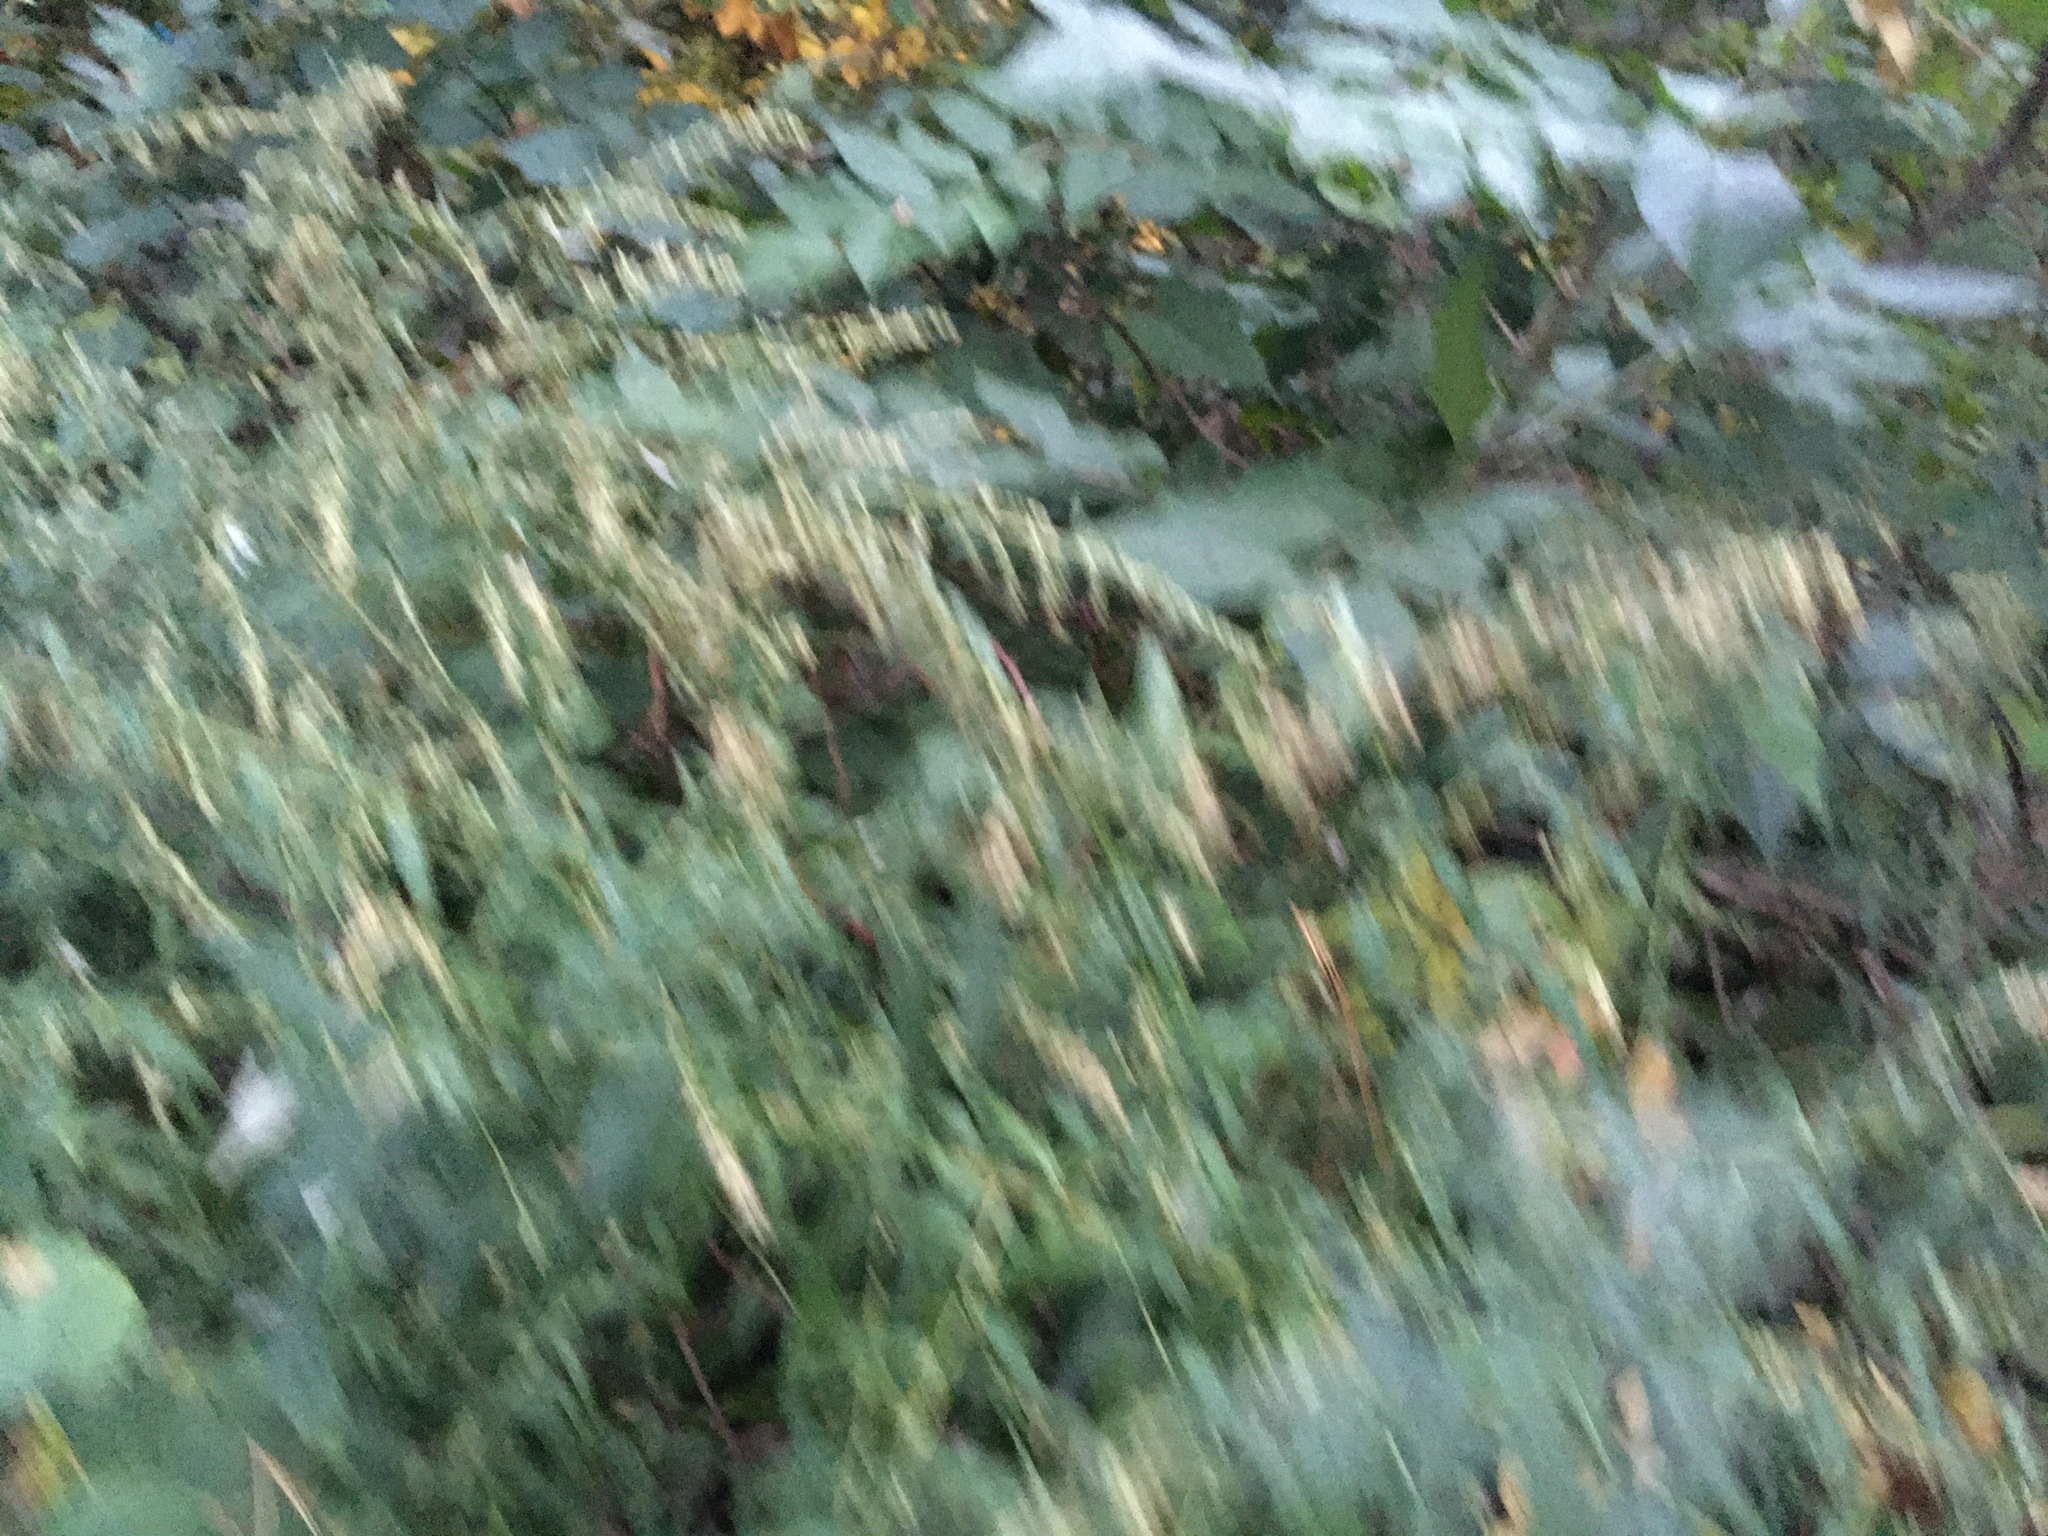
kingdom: Plantae
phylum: Tracheophyta
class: Magnoliopsida
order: Asterales
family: Asteraceae
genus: Artemisia
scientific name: Artemisia vulgaris
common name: Mugwort
